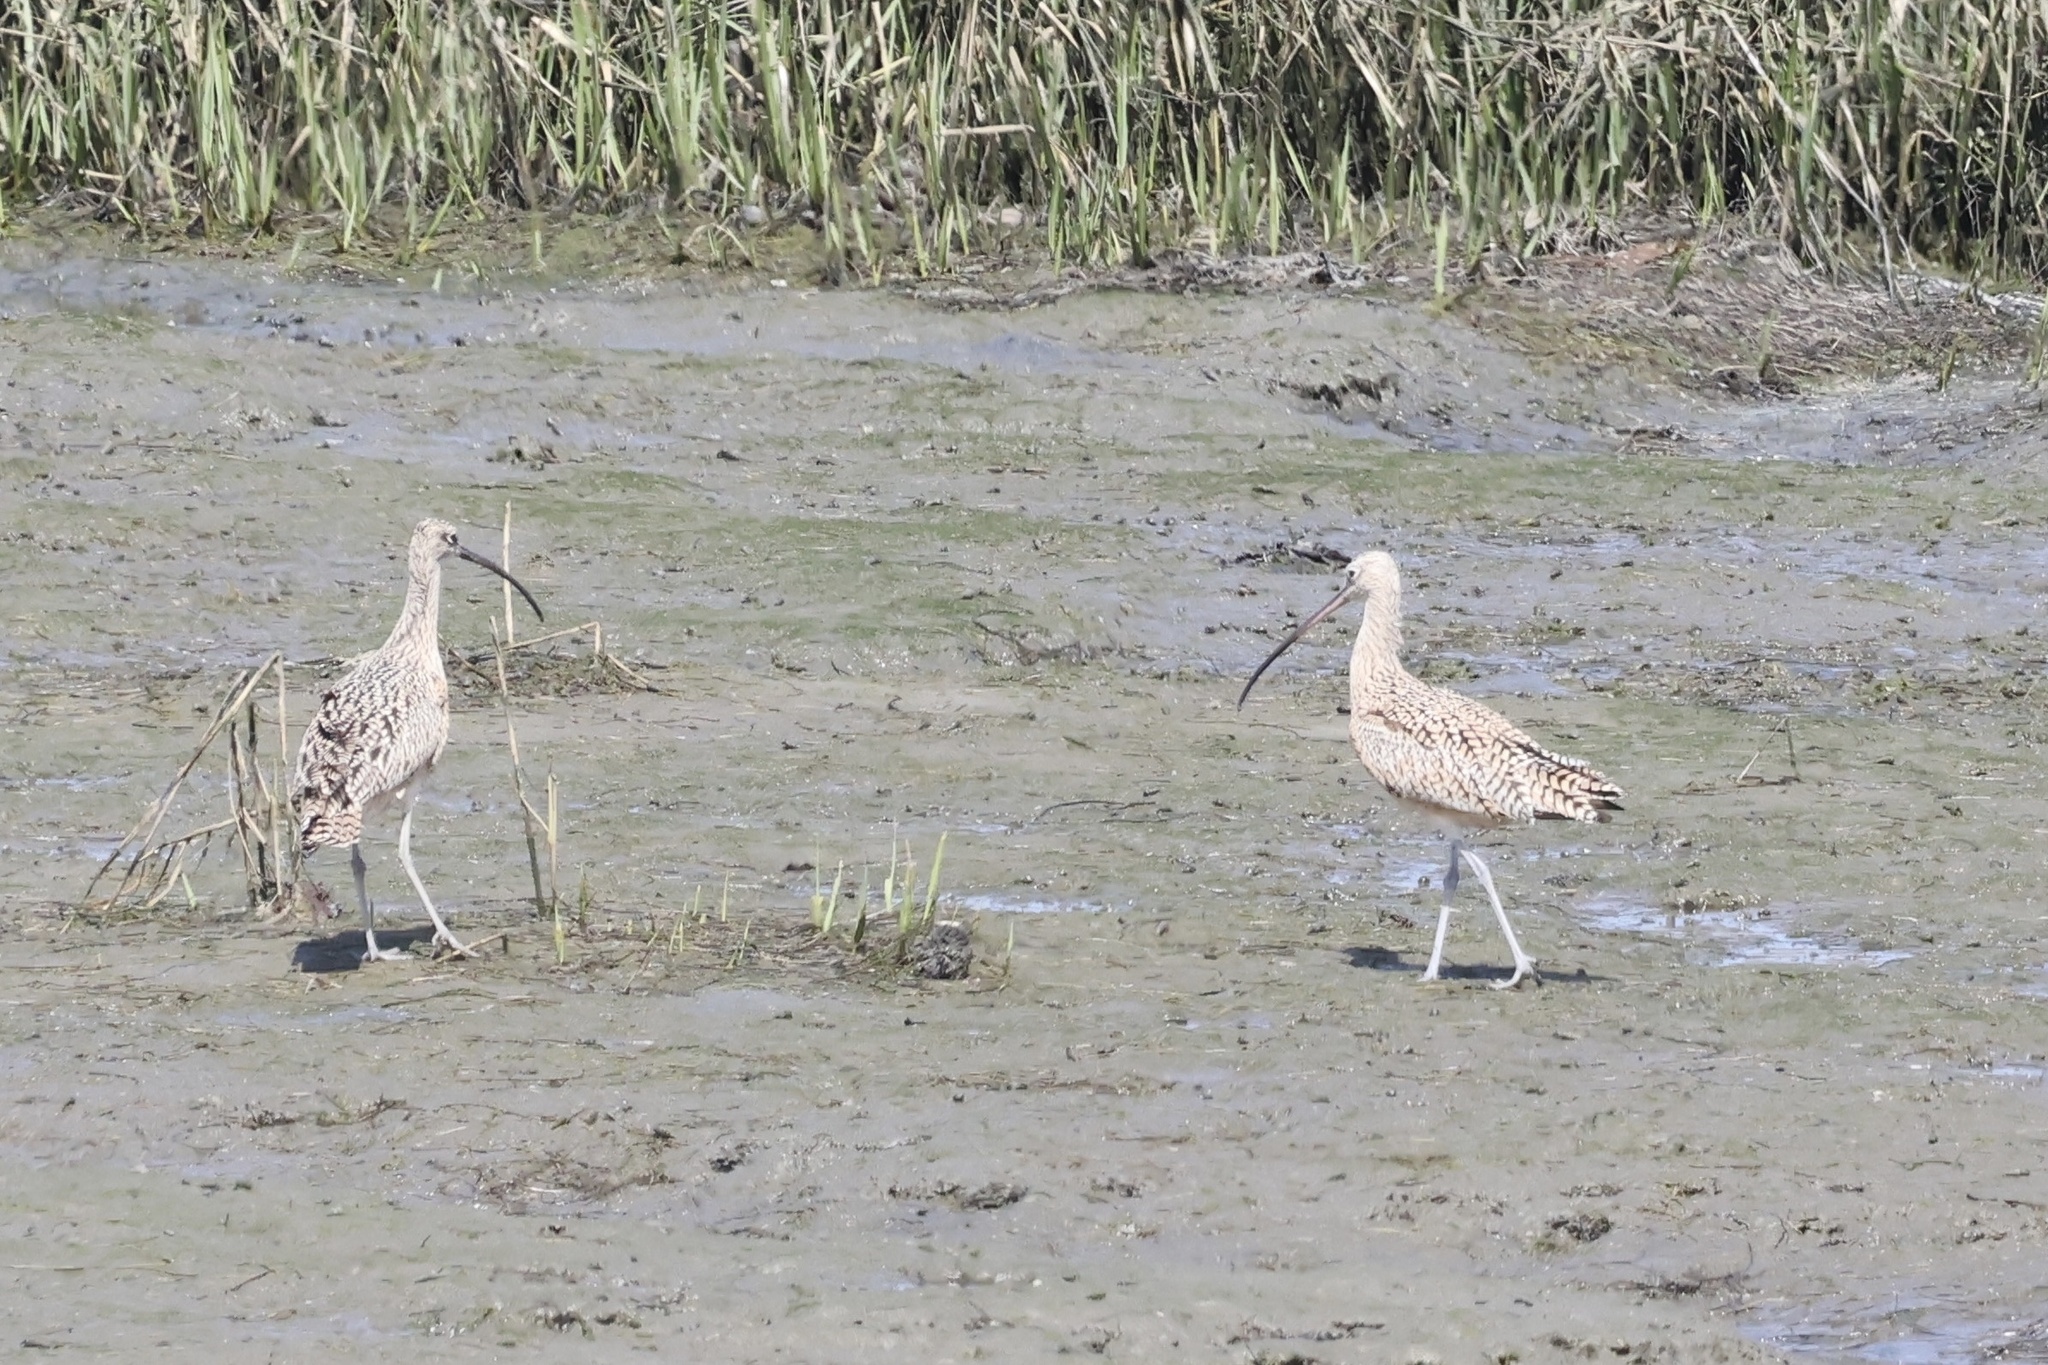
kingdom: Animalia
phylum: Chordata
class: Aves
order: Charadriiformes
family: Scolopacidae
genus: Numenius
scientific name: Numenius americanus
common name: Long-billed curlew
